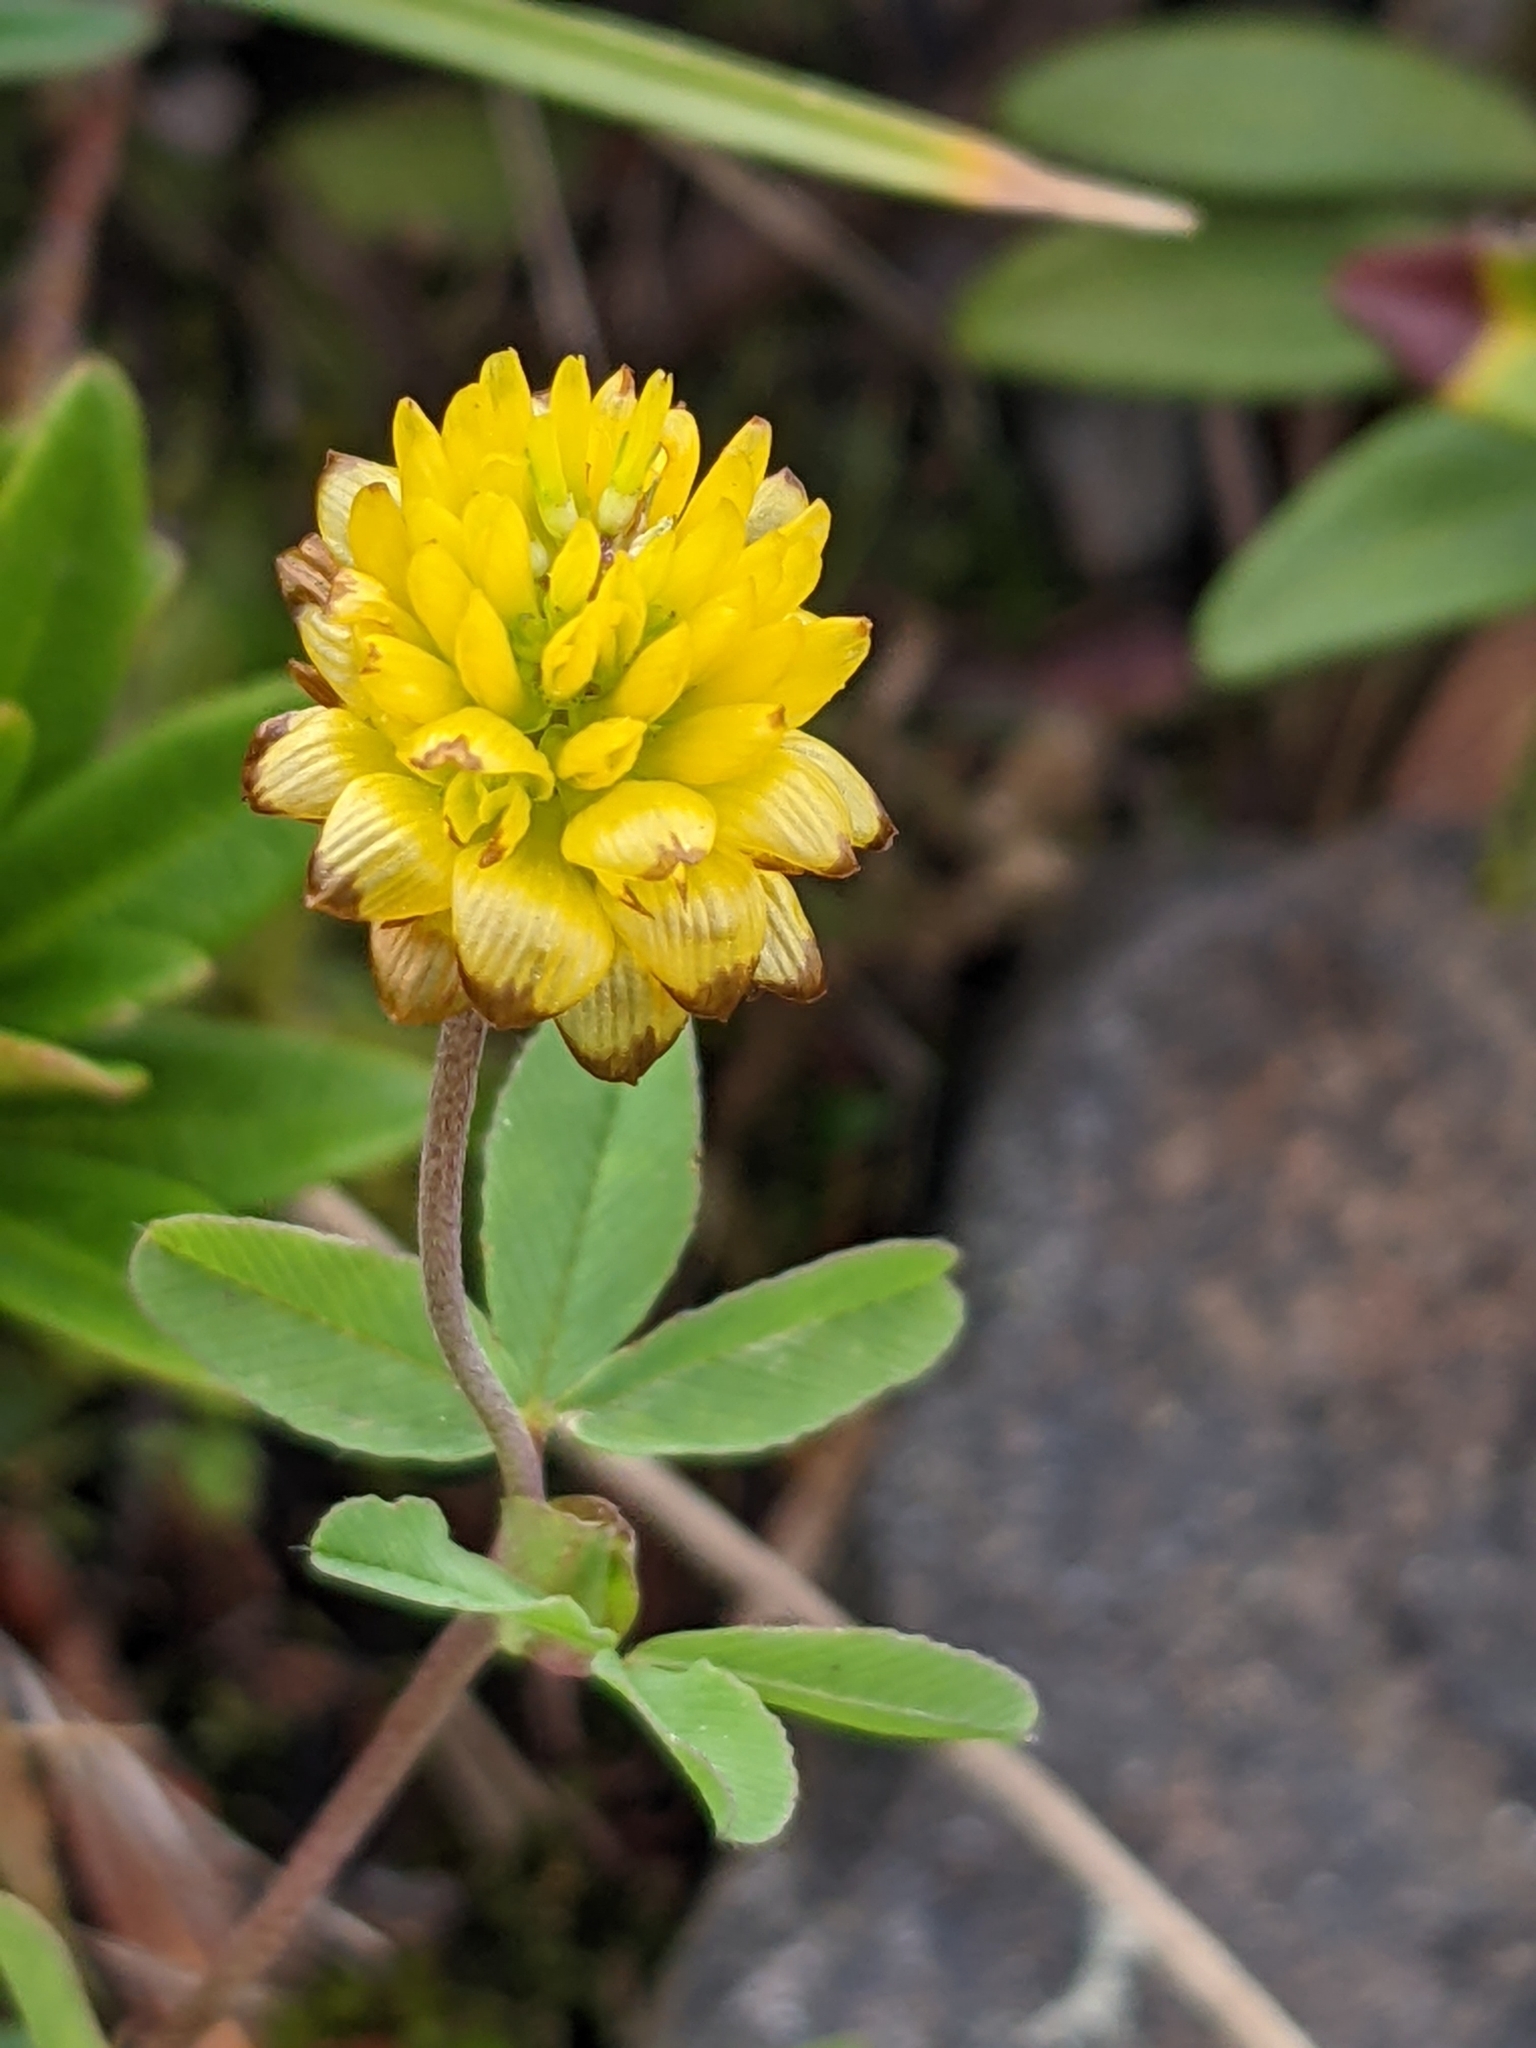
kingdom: Plantae
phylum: Tracheophyta
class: Magnoliopsida
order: Fabales
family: Fabaceae
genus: Trifolium
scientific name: Trifolium badium
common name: Brown clover
